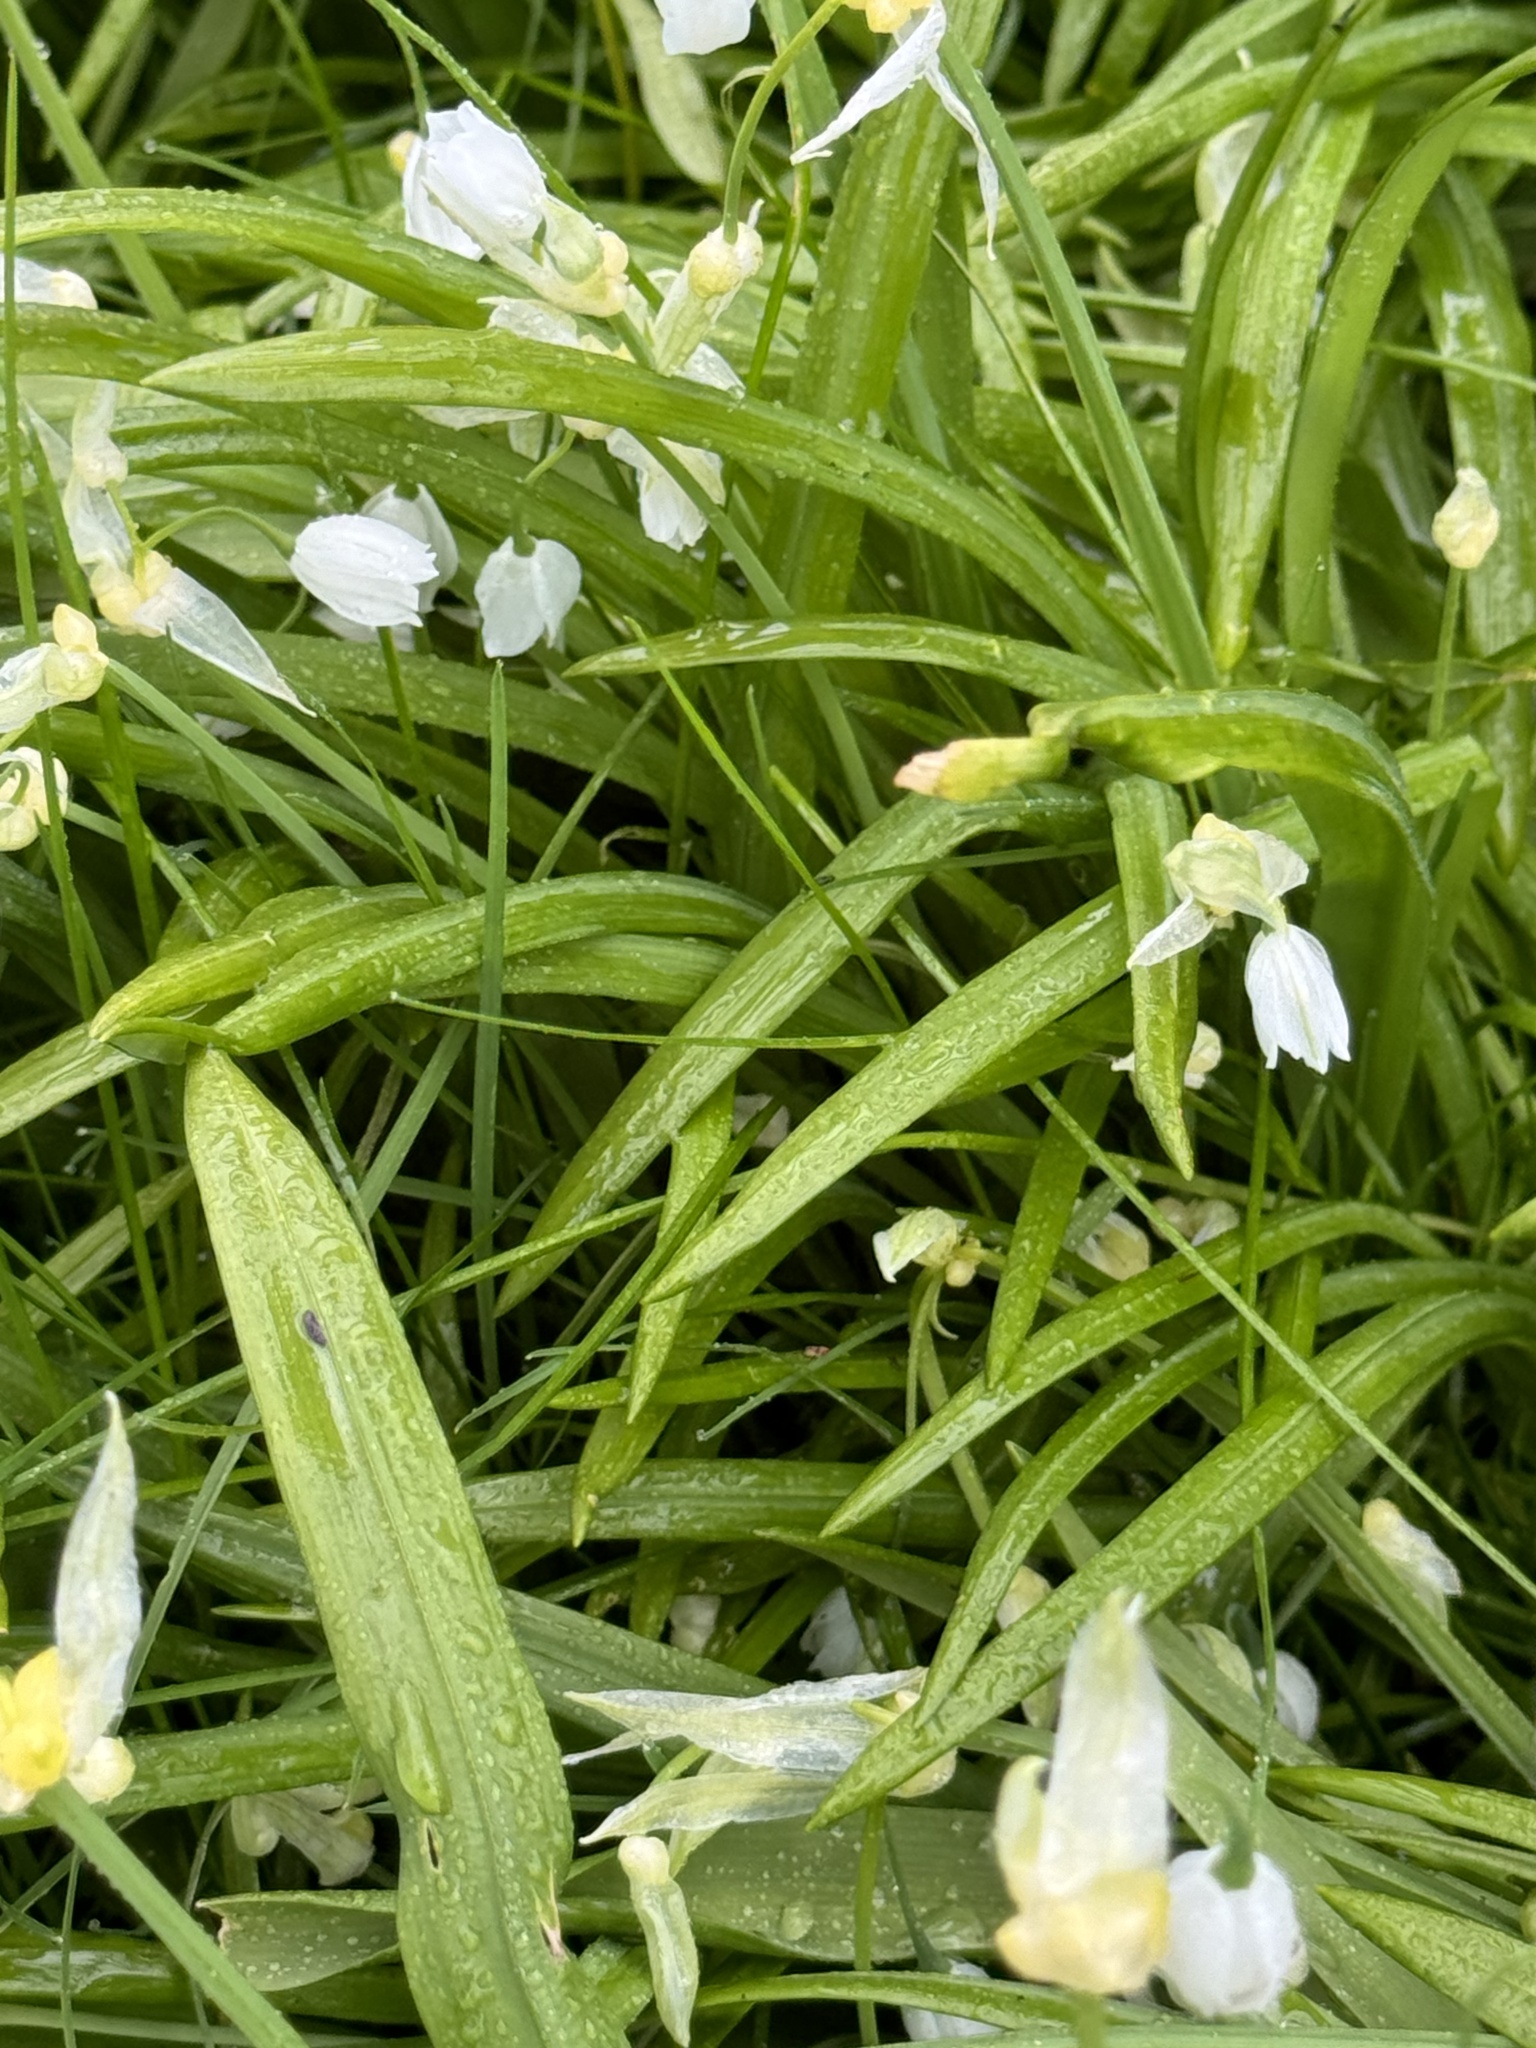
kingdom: Plantae
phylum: Tracheophyta
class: Liliopsida
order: Asparagales
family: Amaryllidaceae
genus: Allium
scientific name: Allium paradoxum
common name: Few-flowered garlic
